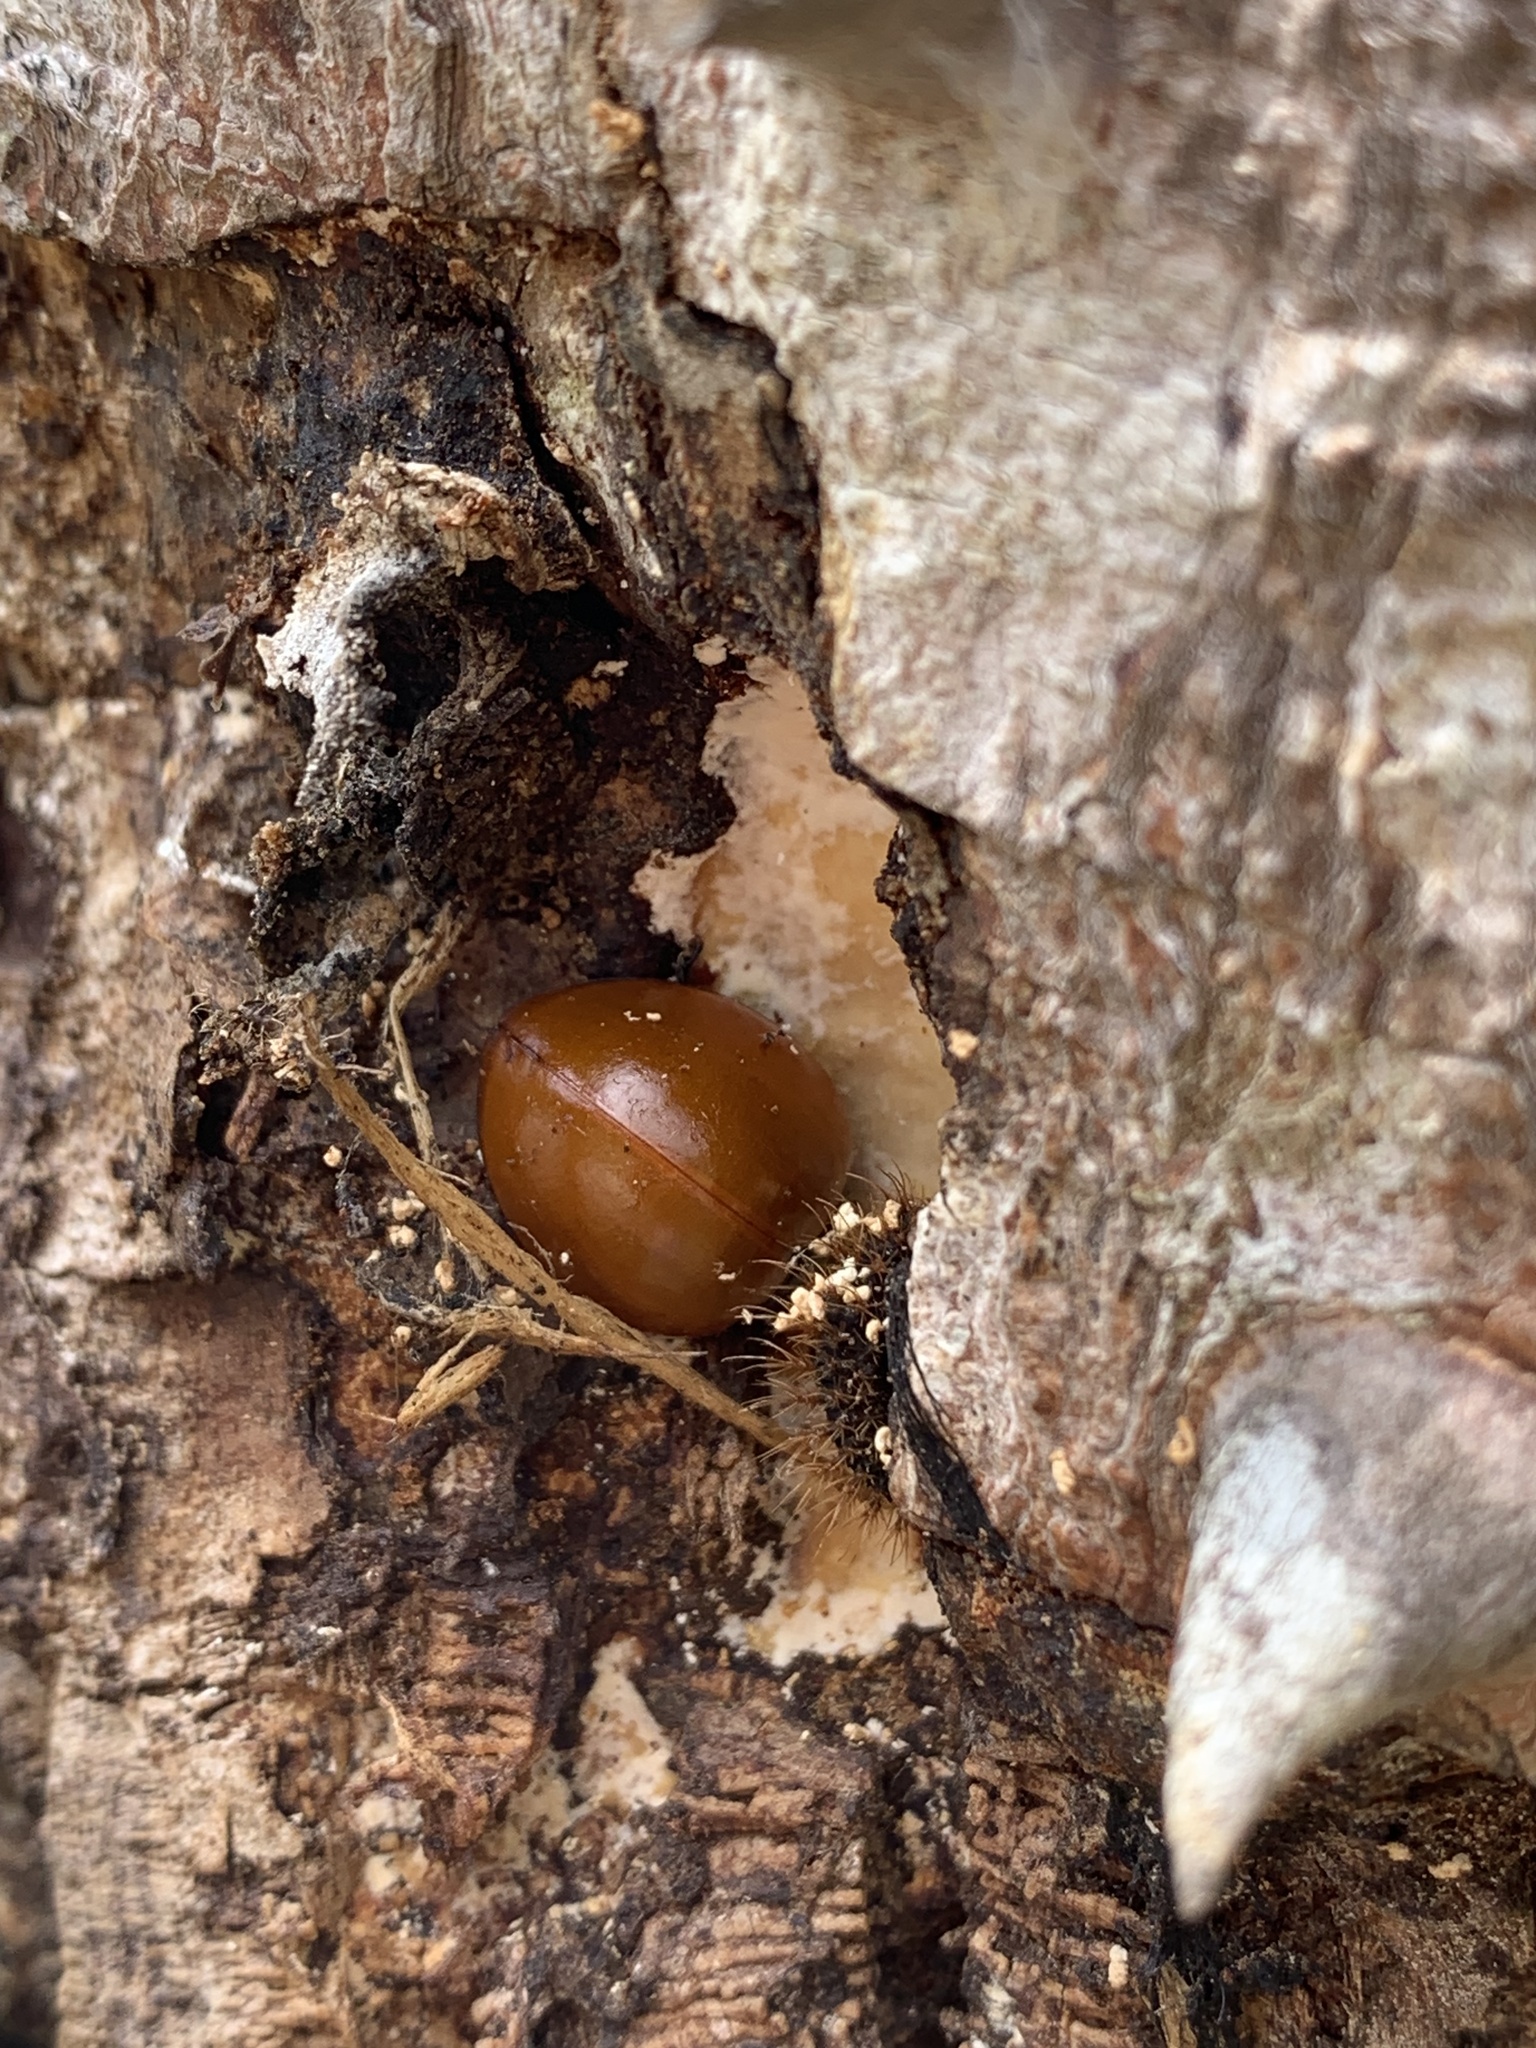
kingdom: Animalia
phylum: Arthropoda
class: Insecta
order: Coleoptera
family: Erotylidae
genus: Aegithus
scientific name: Aegithus
